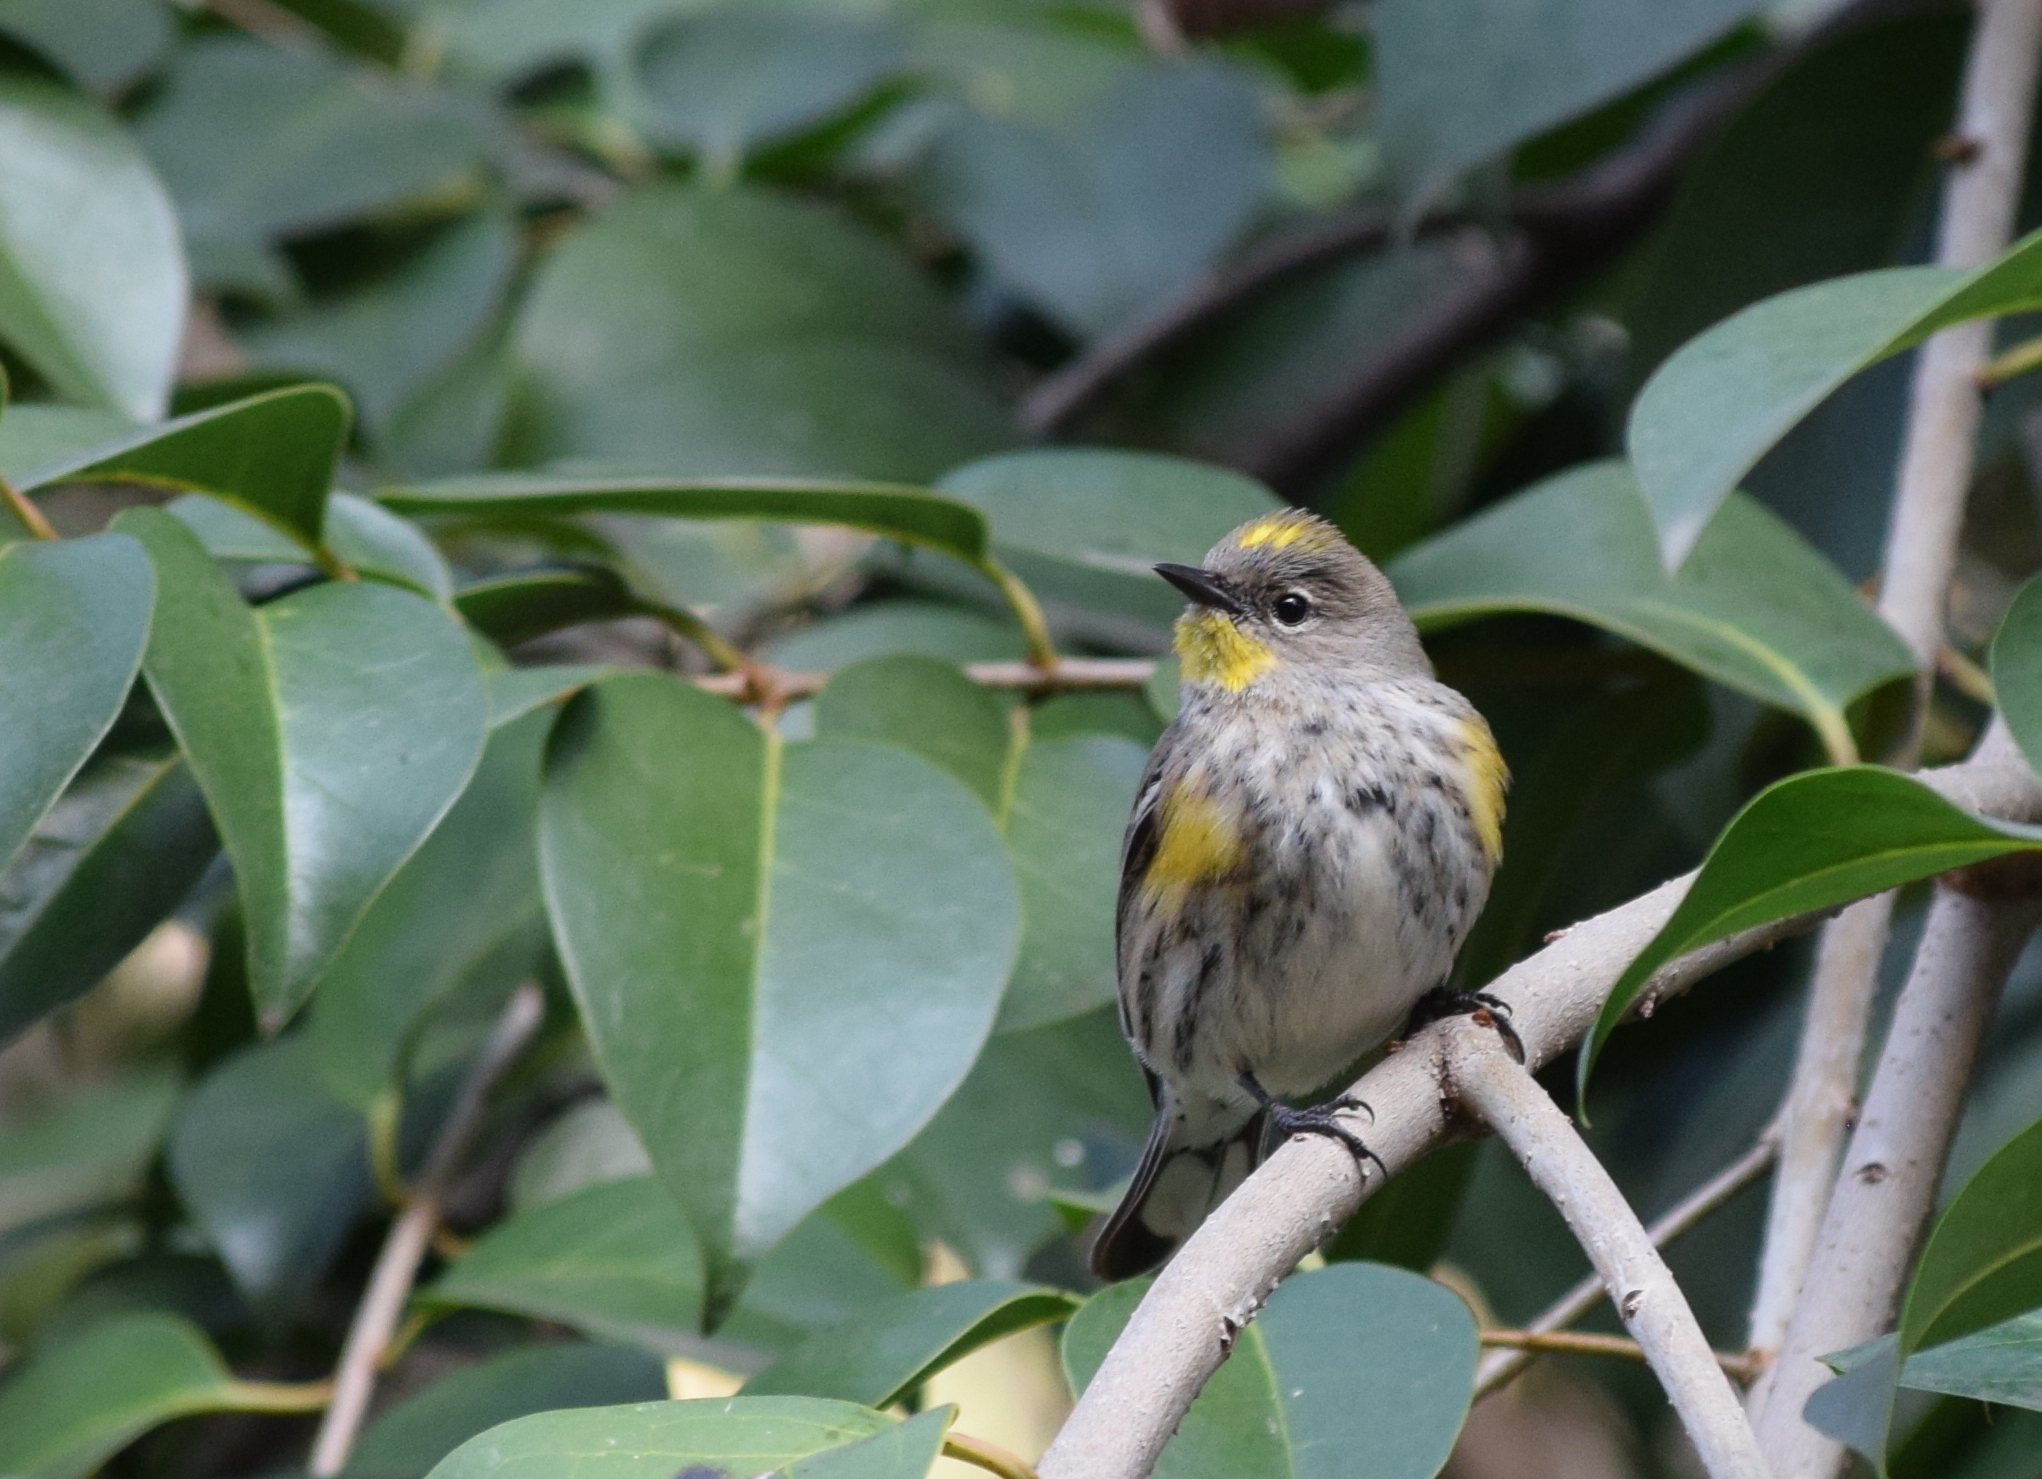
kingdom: Animalia
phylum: Chordata
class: Aves
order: Passeriformes
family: Parulidae
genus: Setophaga
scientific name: Setophaga coronata
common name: Myrtle warbler
